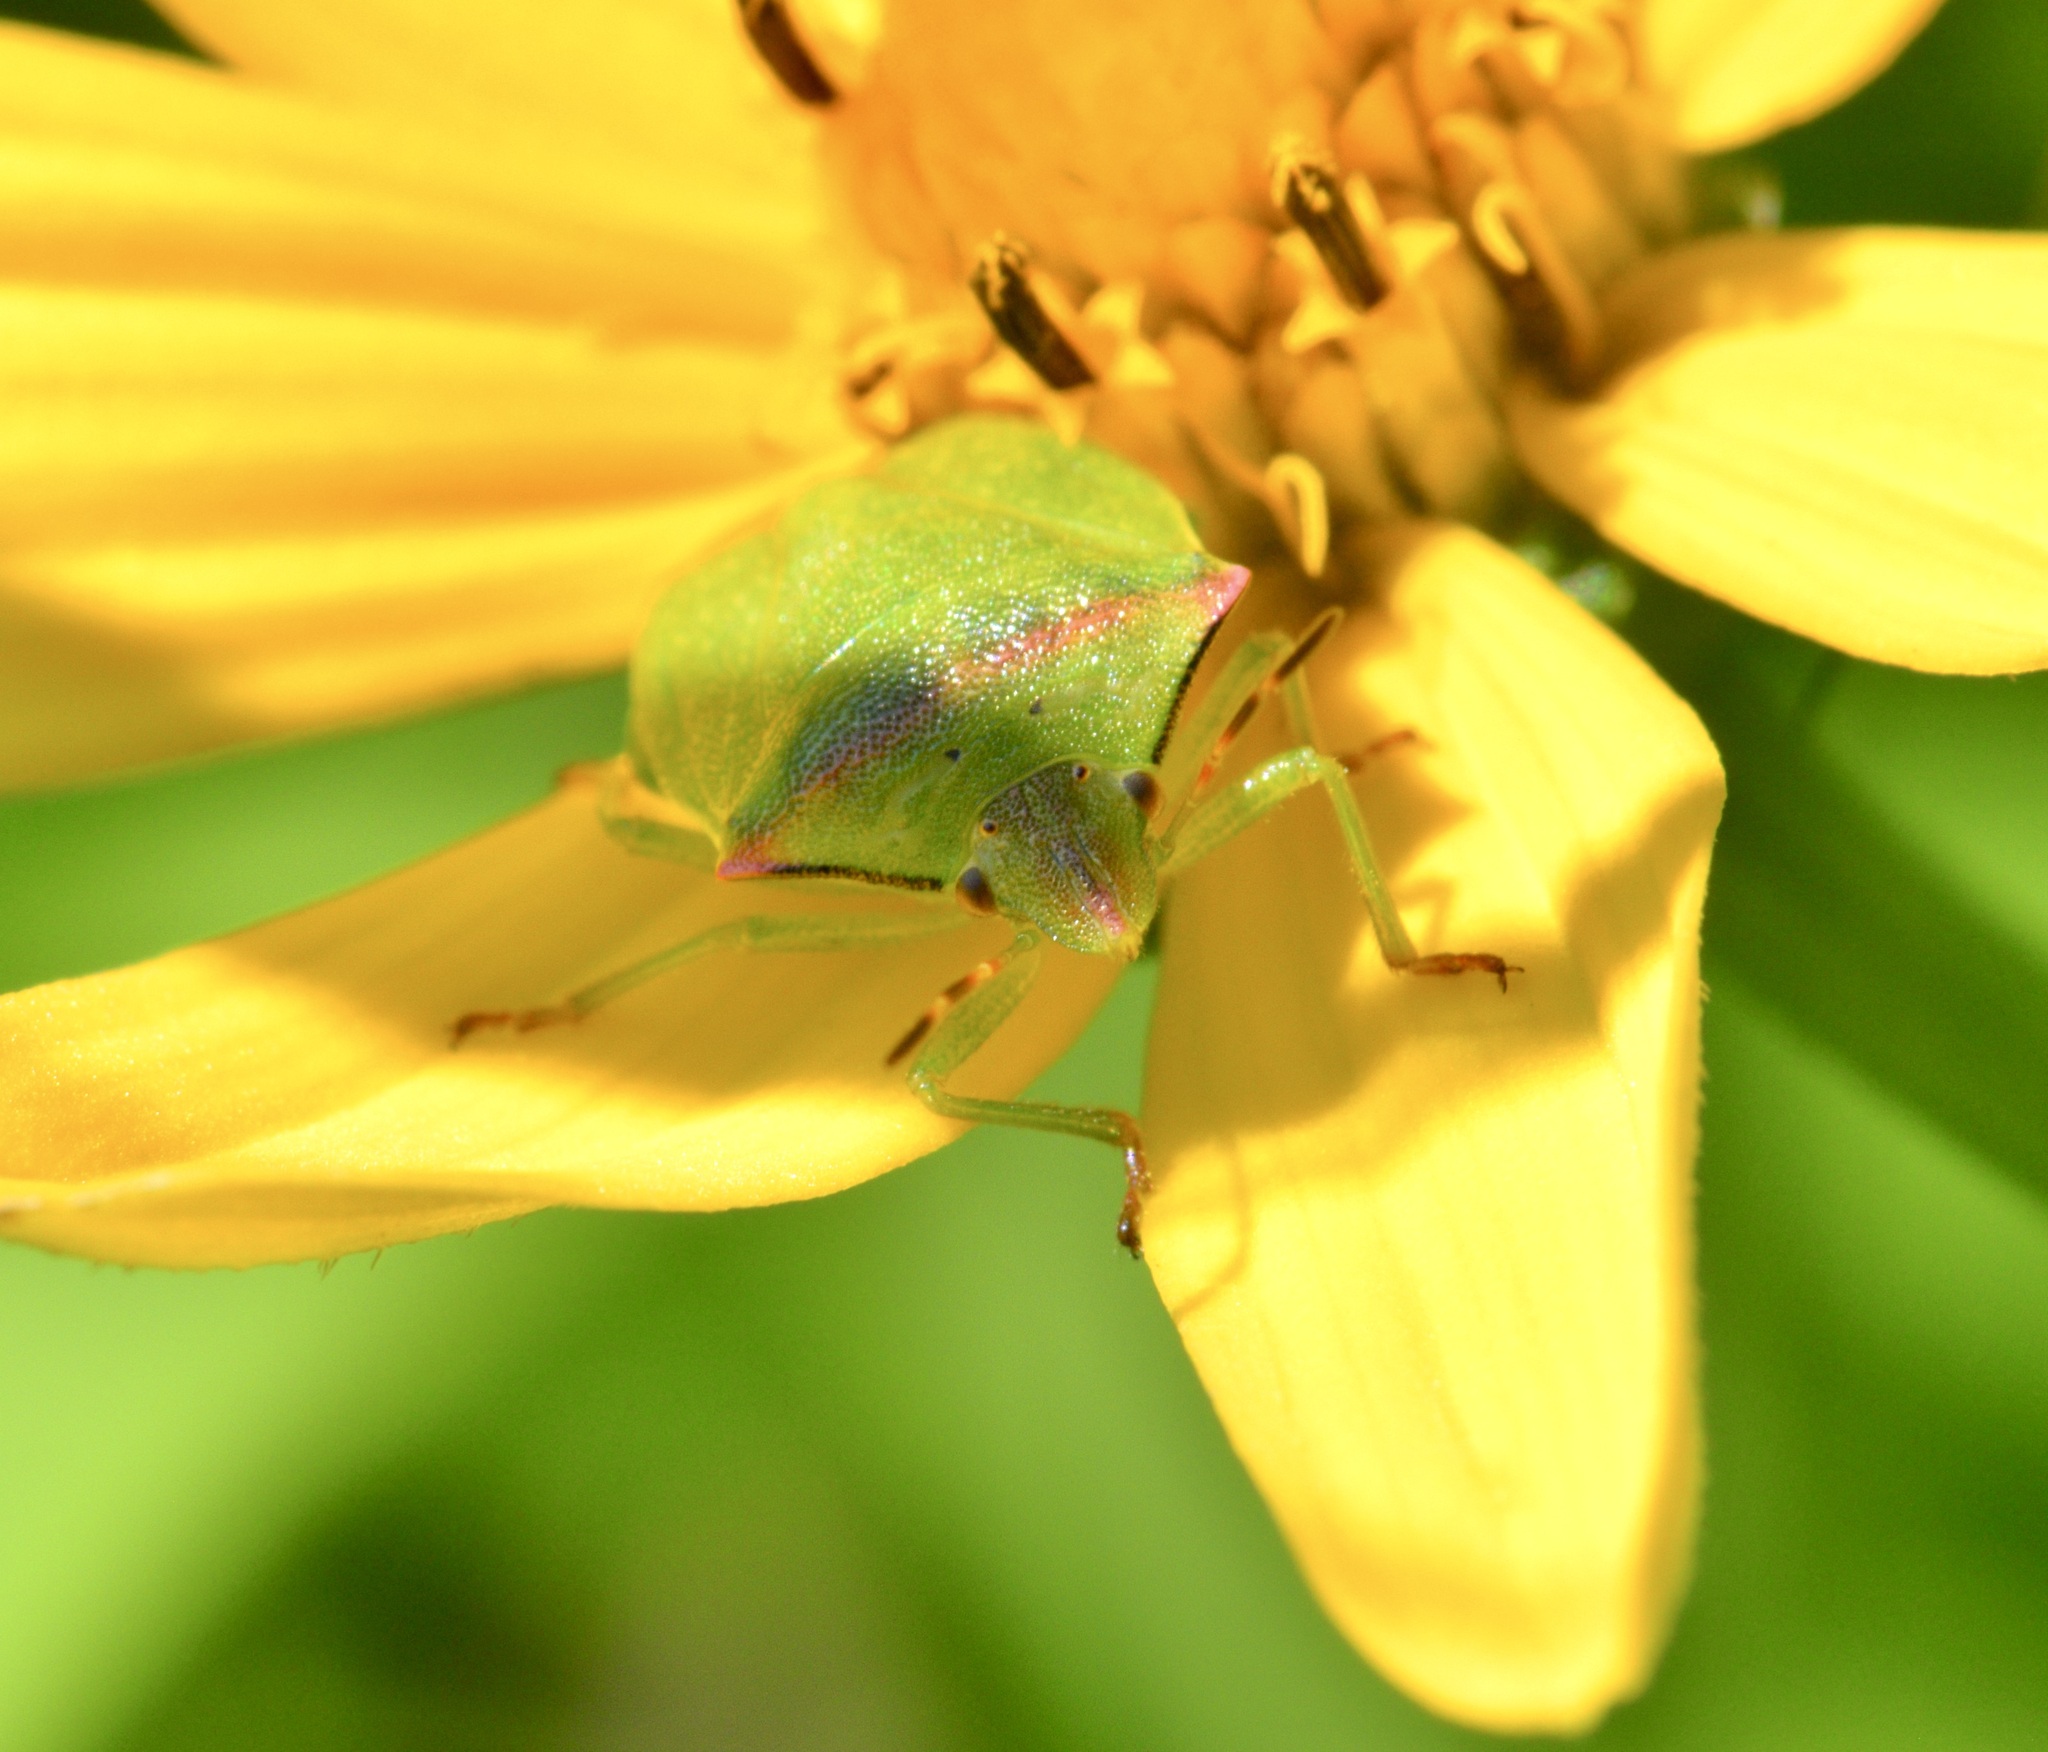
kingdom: Animalia
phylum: Arthropoda
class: Insecta
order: Hemiptera
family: Pentatomidae
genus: Thyanta
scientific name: Thyanta custator
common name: Stink bug
